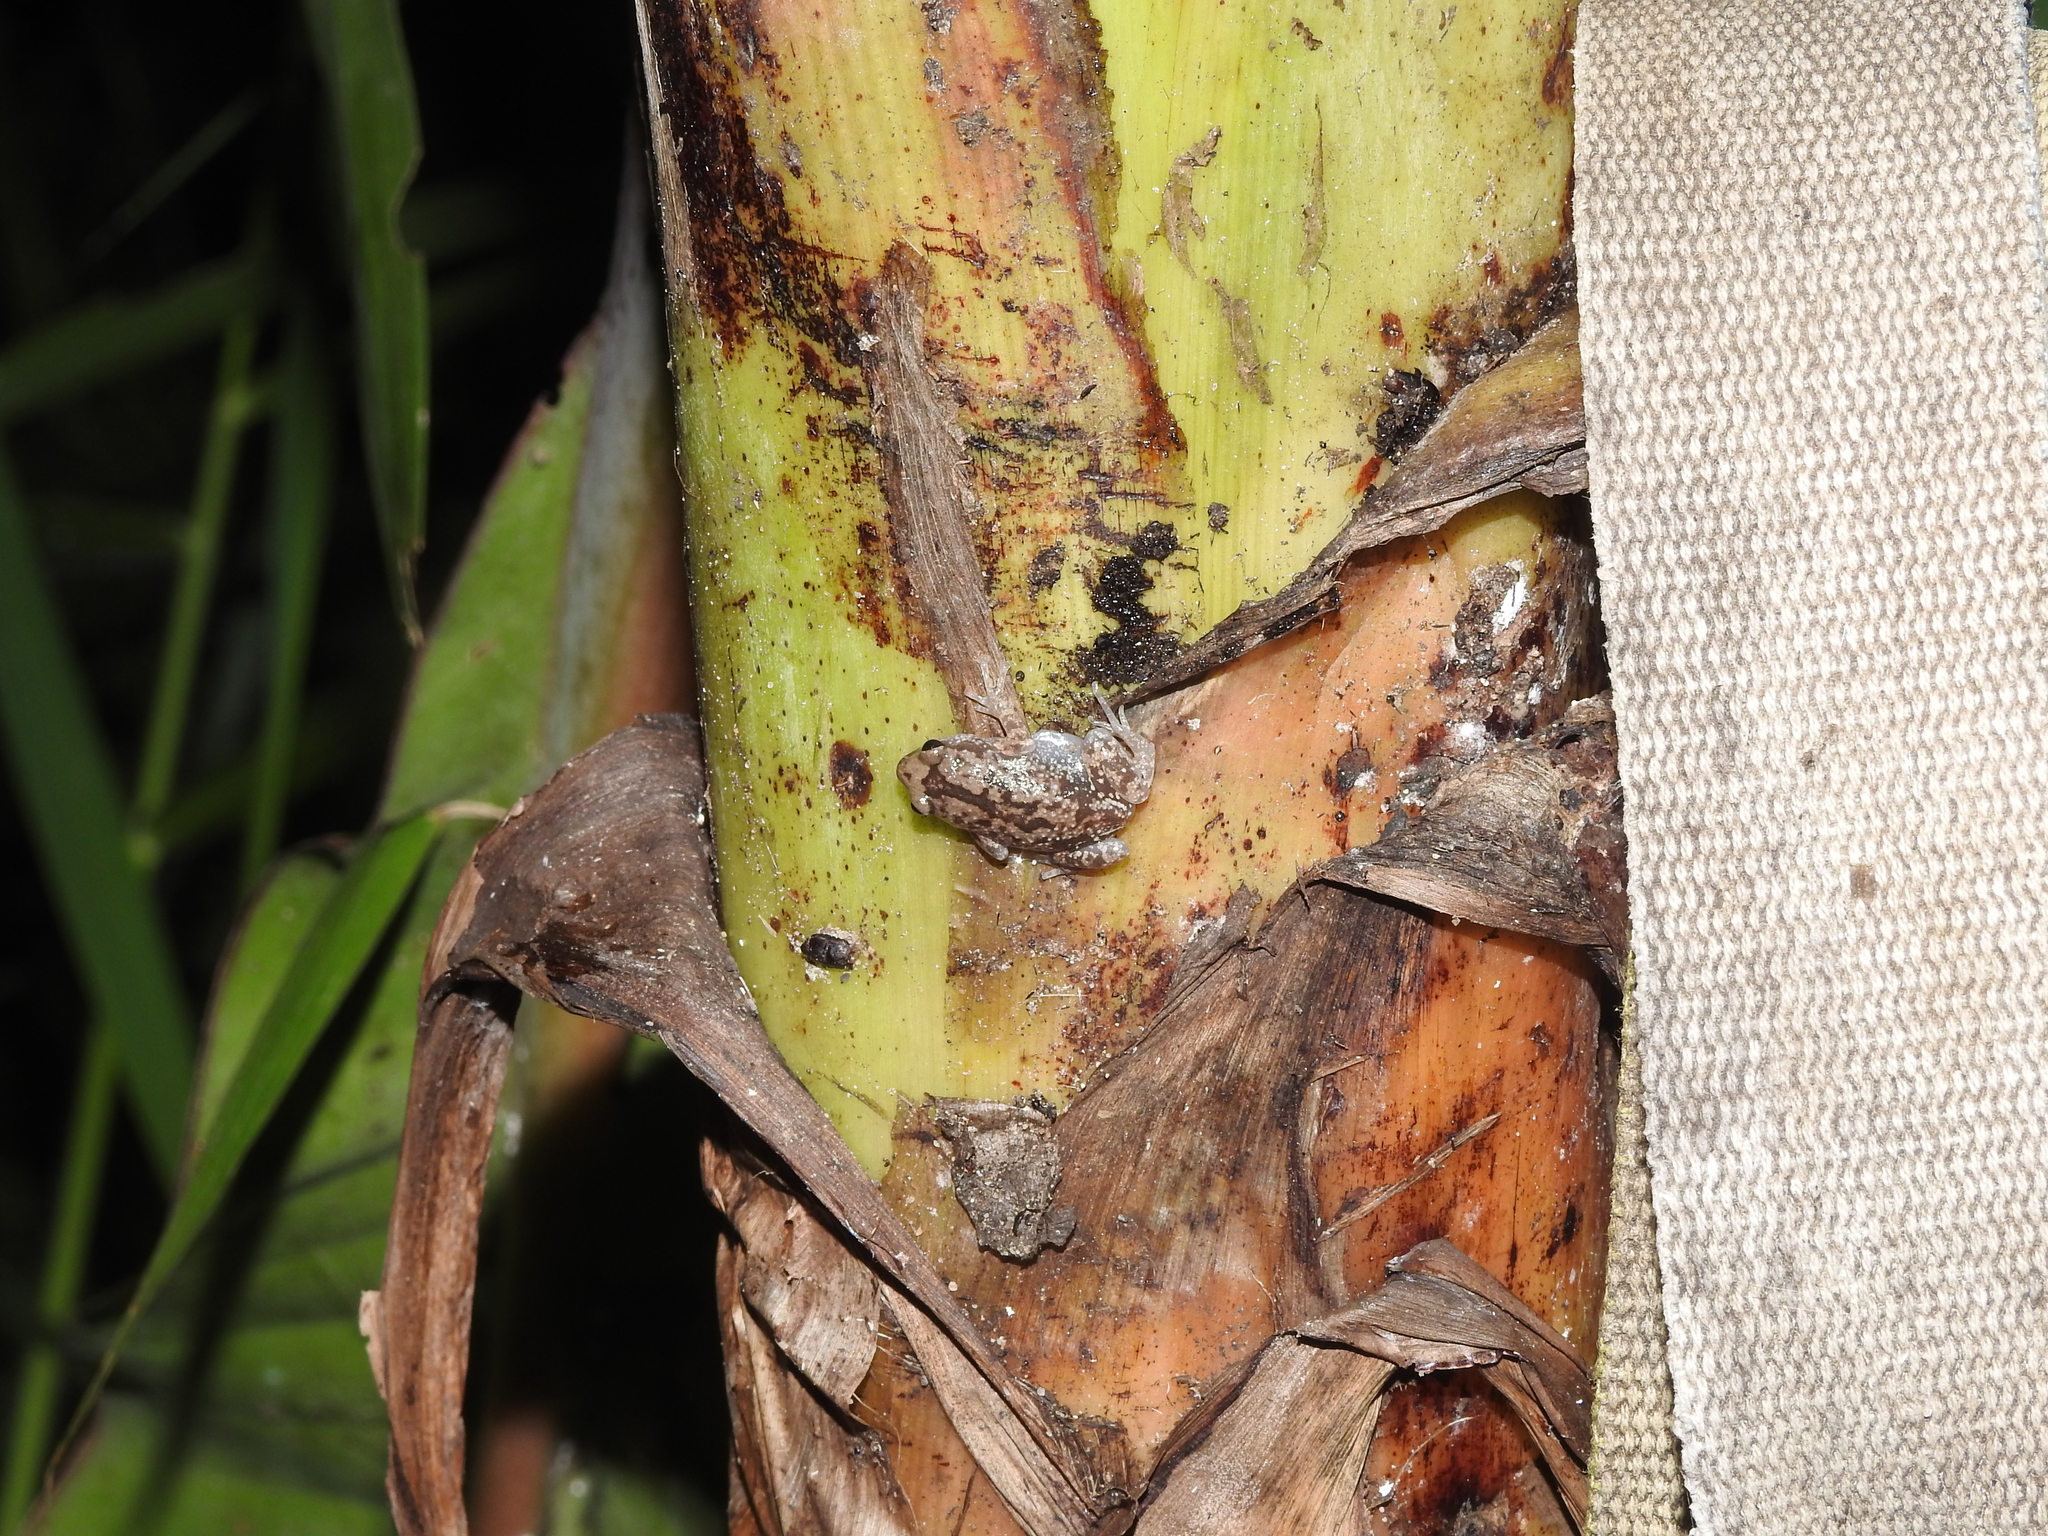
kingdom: Animalia
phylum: Chordata
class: Amphibia
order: Anura
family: Microhylidae
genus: Uperodon
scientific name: Uperodon variegatus
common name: Eluru dot frog
